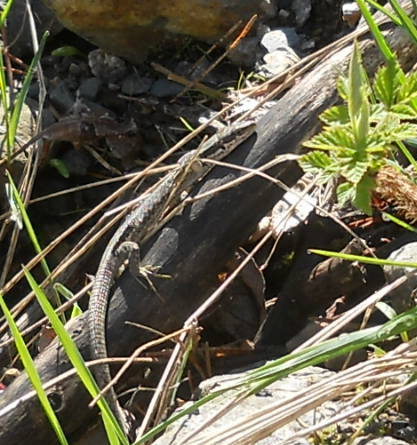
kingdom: Animalia
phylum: Chordata
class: Squamata
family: Lacertidae
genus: Darevskia
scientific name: Darevskia praticola
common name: Meadow lizard
